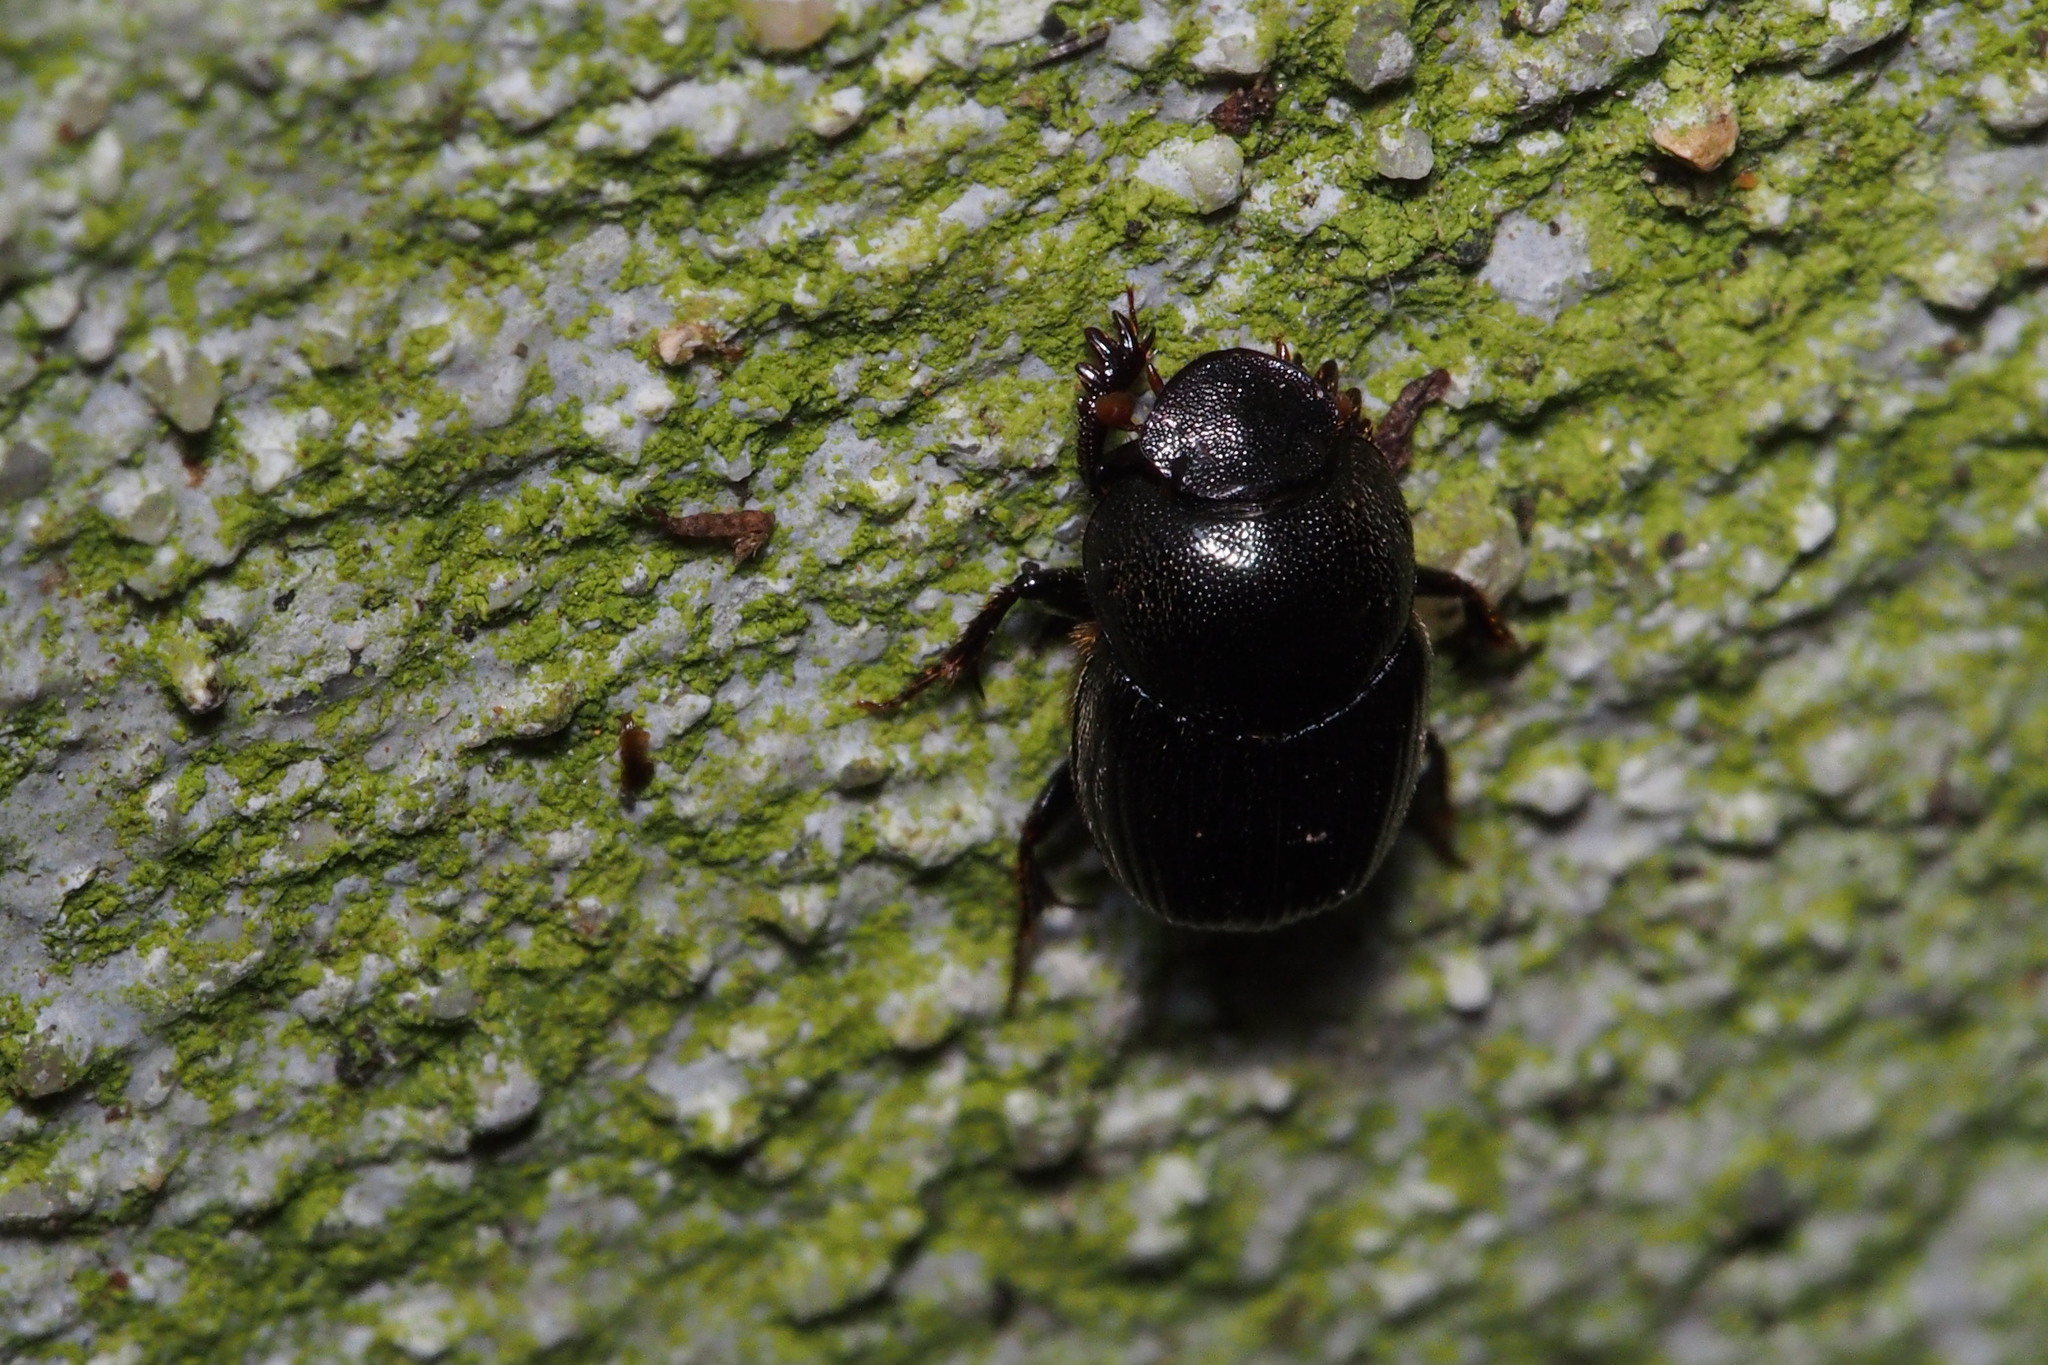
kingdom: Animalia
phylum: Arthropoda
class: Insecta
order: Coleoptera
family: Scarabaeidae
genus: Parascatonomus
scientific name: Parascatonomus nitidus
